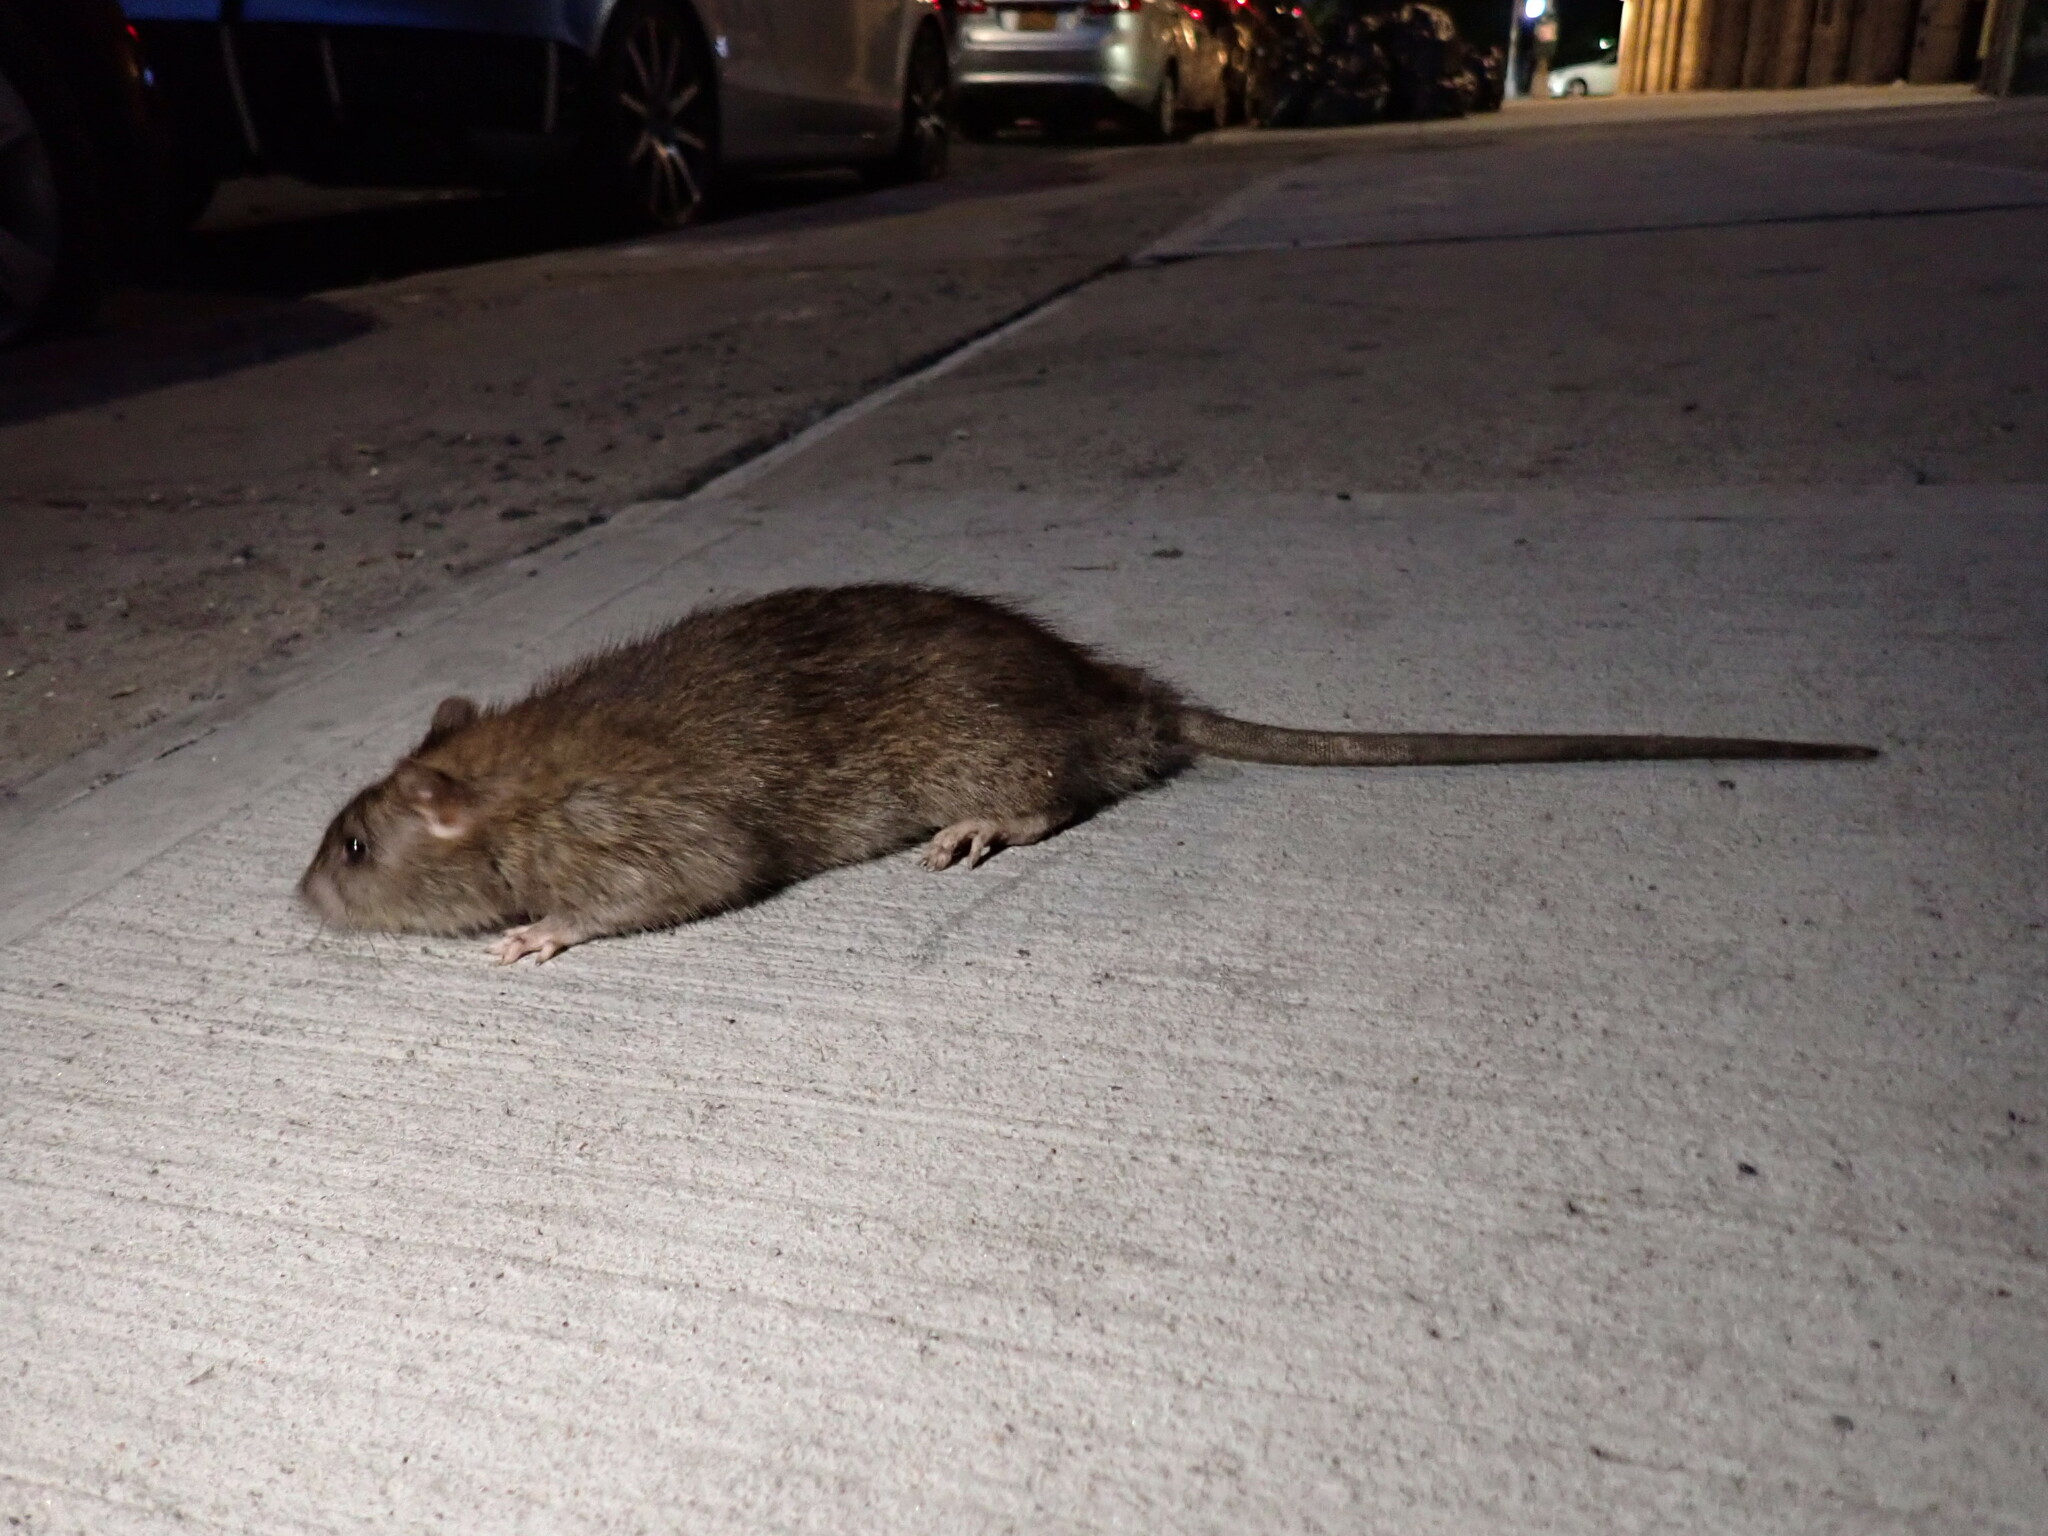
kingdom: Animalia
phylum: Chordata
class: Mammalia
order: Rodentia
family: Muridae
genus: Rattus
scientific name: Rattus norvegicus
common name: Brown rat
